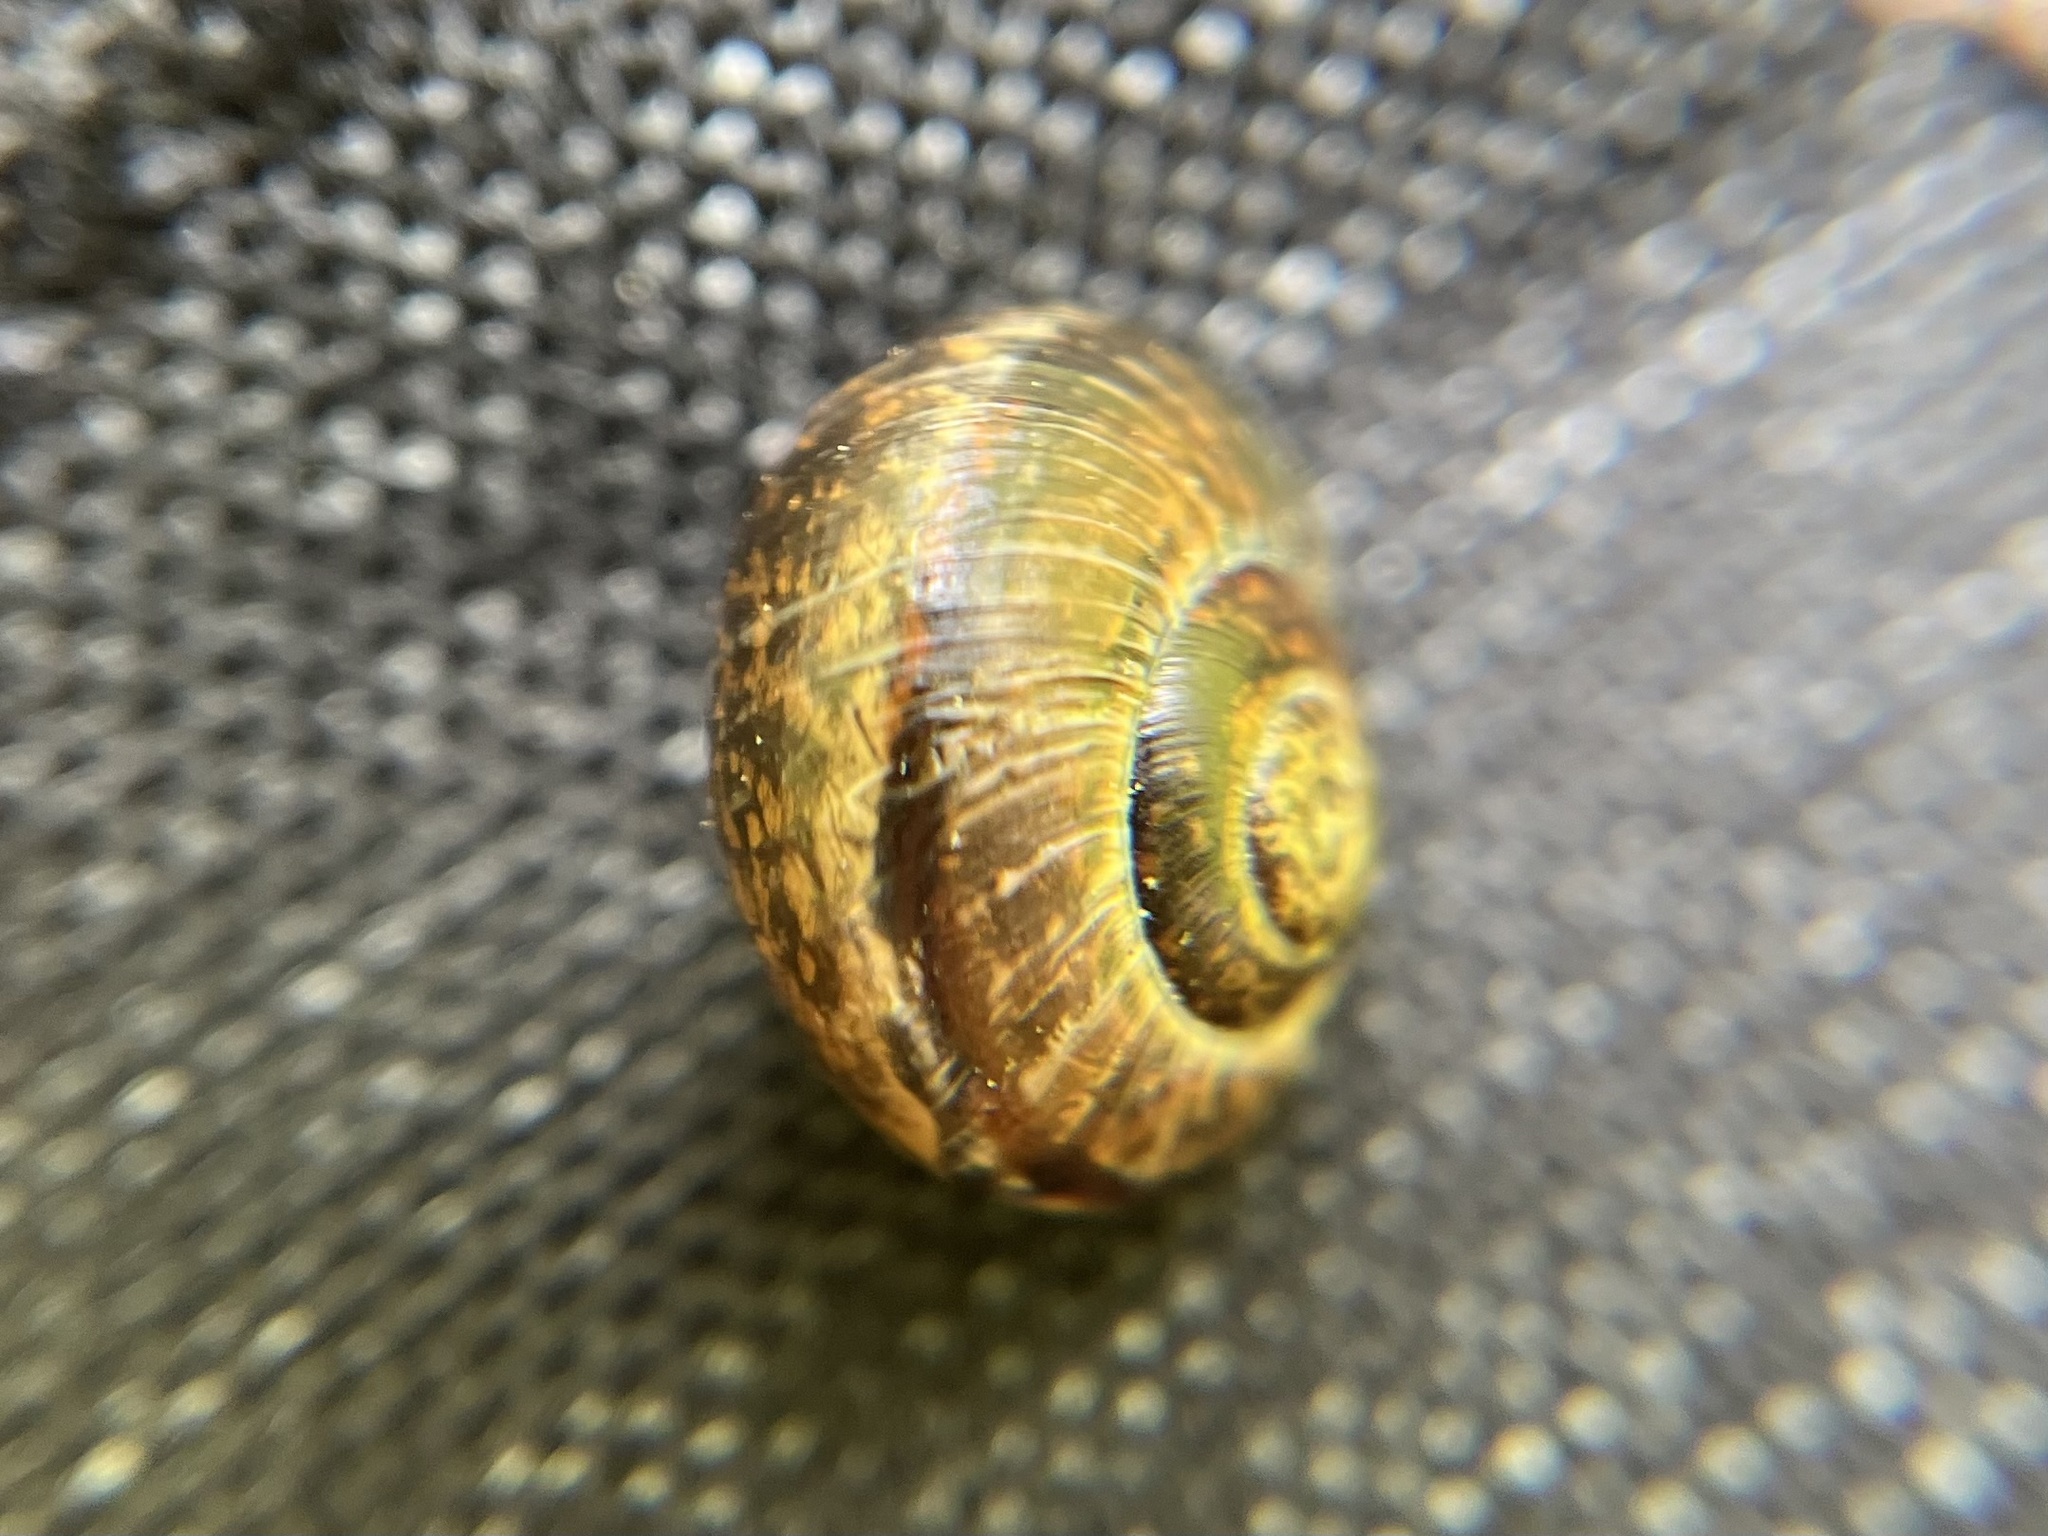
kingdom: Animalia
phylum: Mollusca
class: Gastropoda
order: Stylommatophora
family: Helicidae
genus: Arianta
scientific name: Arianta arbustorum
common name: Copse snail
